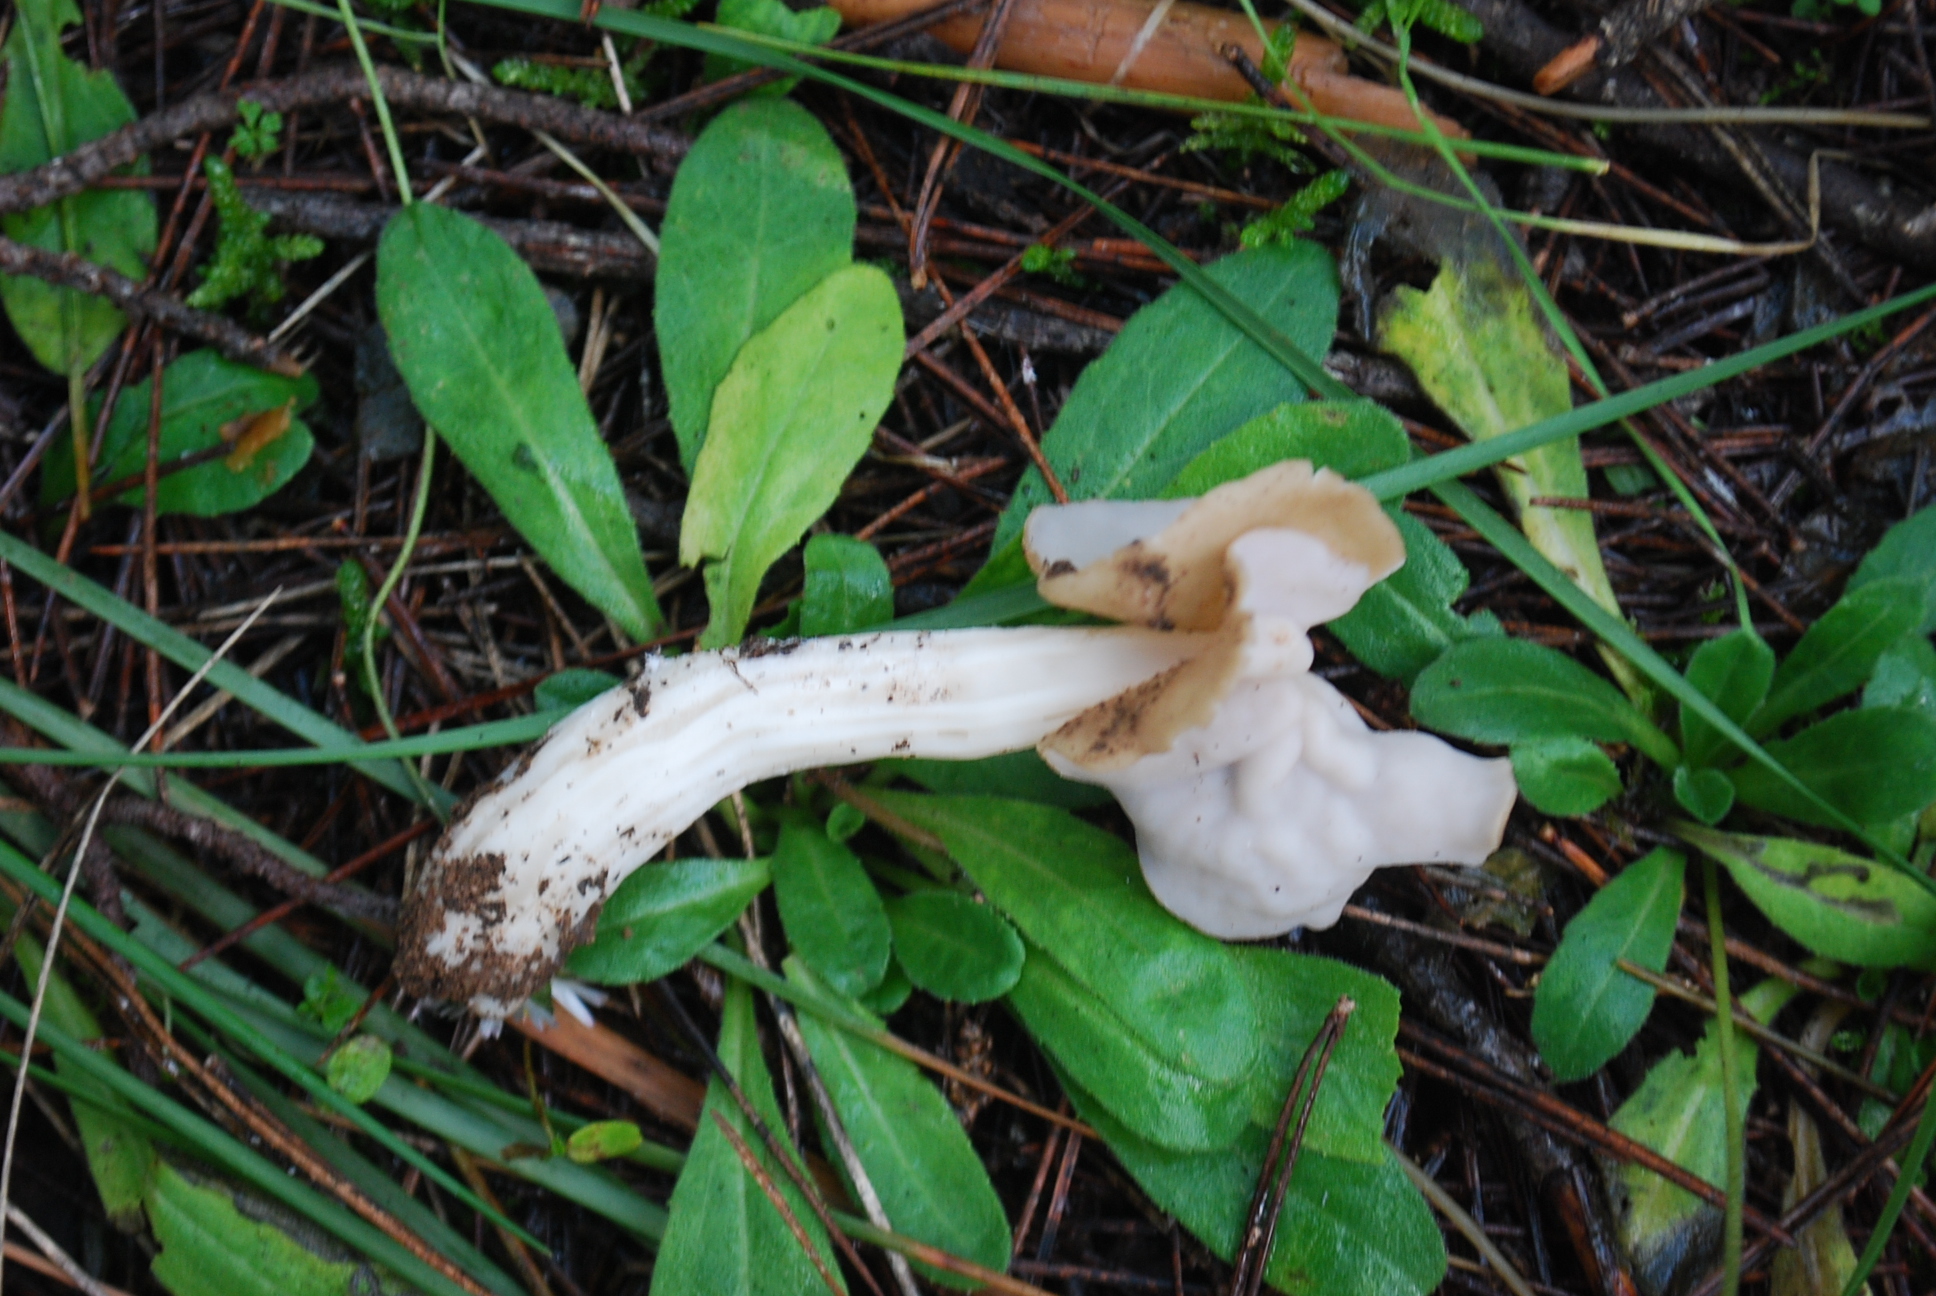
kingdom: Fungi
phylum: Ascomycota
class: Pezizomycetes
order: Pezizales
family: Helvellaceae
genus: Helvella
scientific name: Helvella crispa
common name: White saddle
